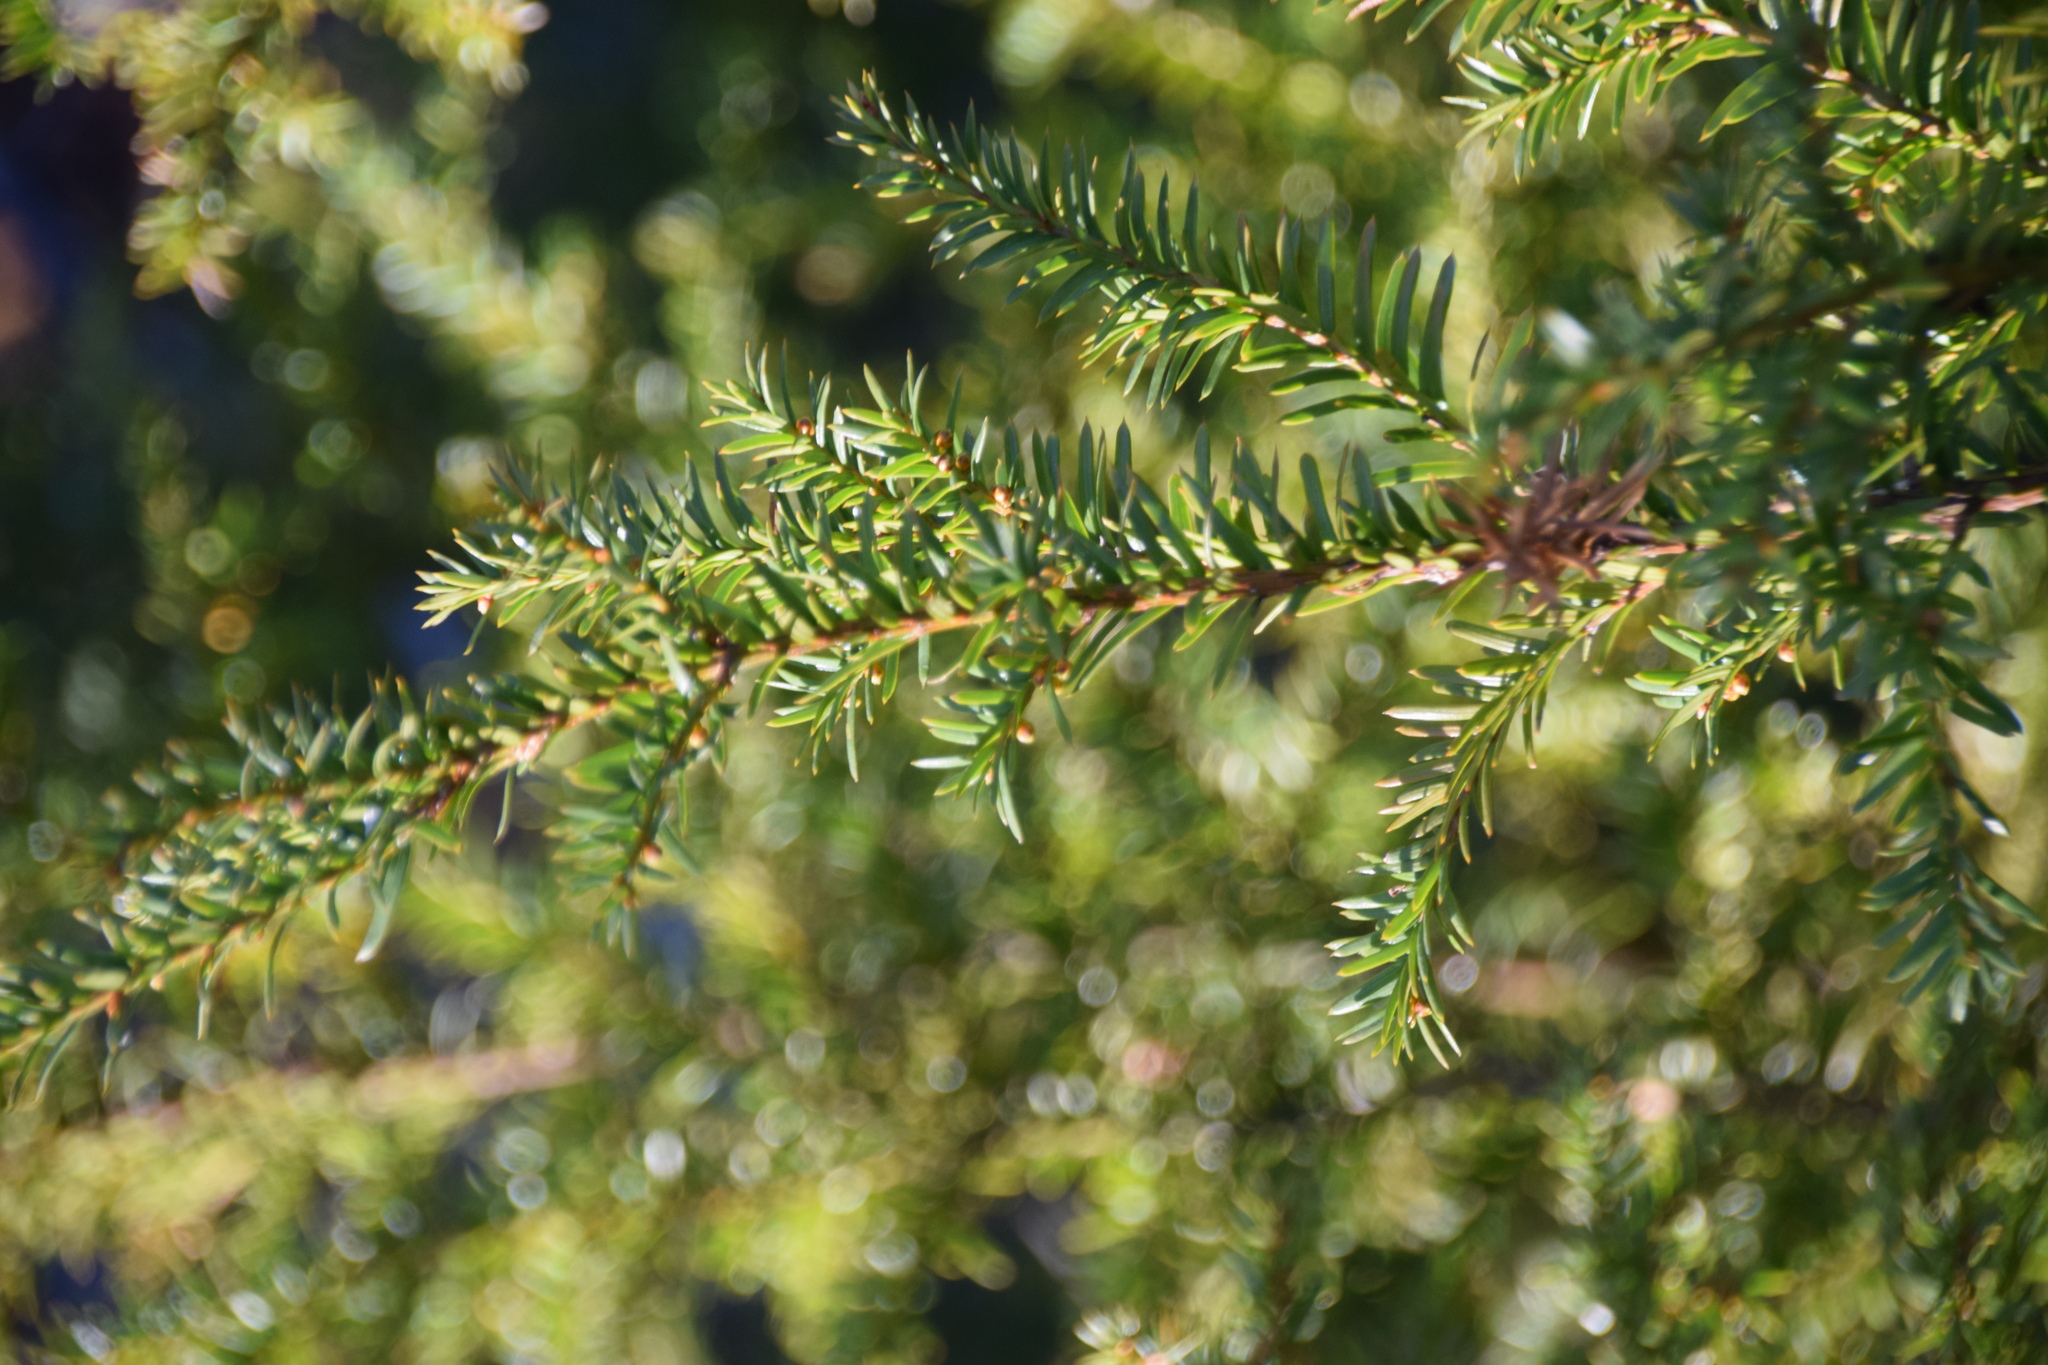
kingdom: Plantae
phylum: Tracheophyta
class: Pinopsida
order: Pinales
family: Taxaceae
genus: Taxus
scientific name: Taxus canadensis
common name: American yew
